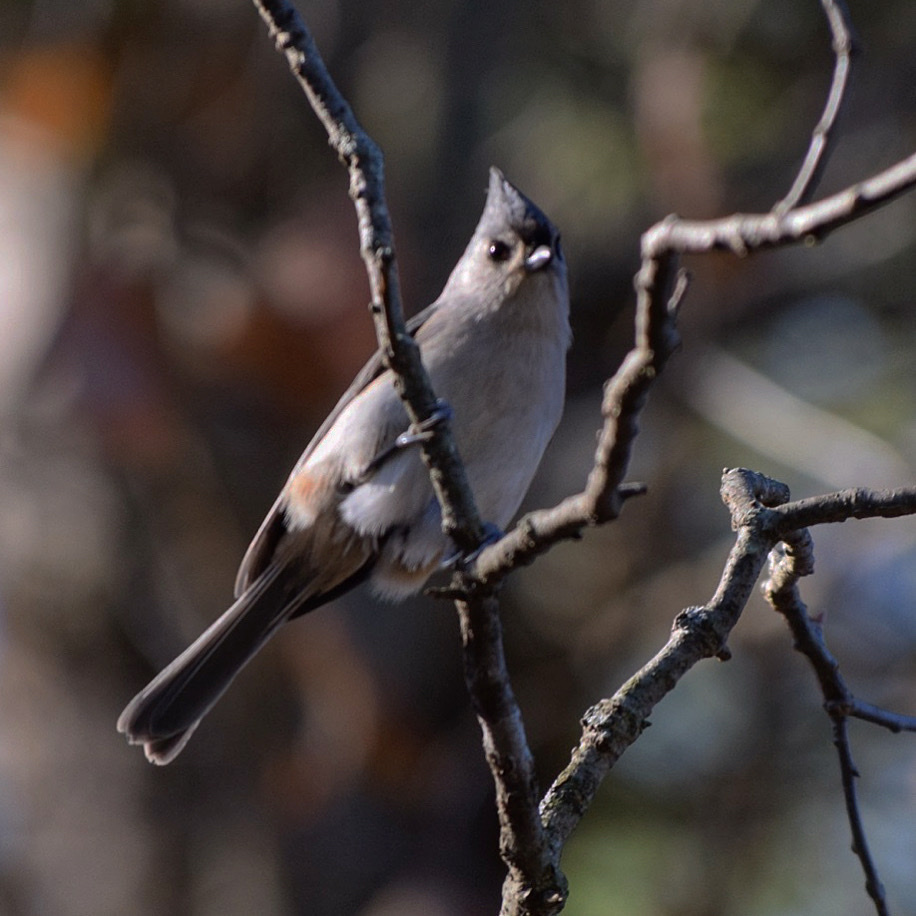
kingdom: Animalia
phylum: Chordata
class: Aves
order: Passeriformes
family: Paridae
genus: Baeolophus
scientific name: Baeolophus bicolor
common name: Tufted titmouse
